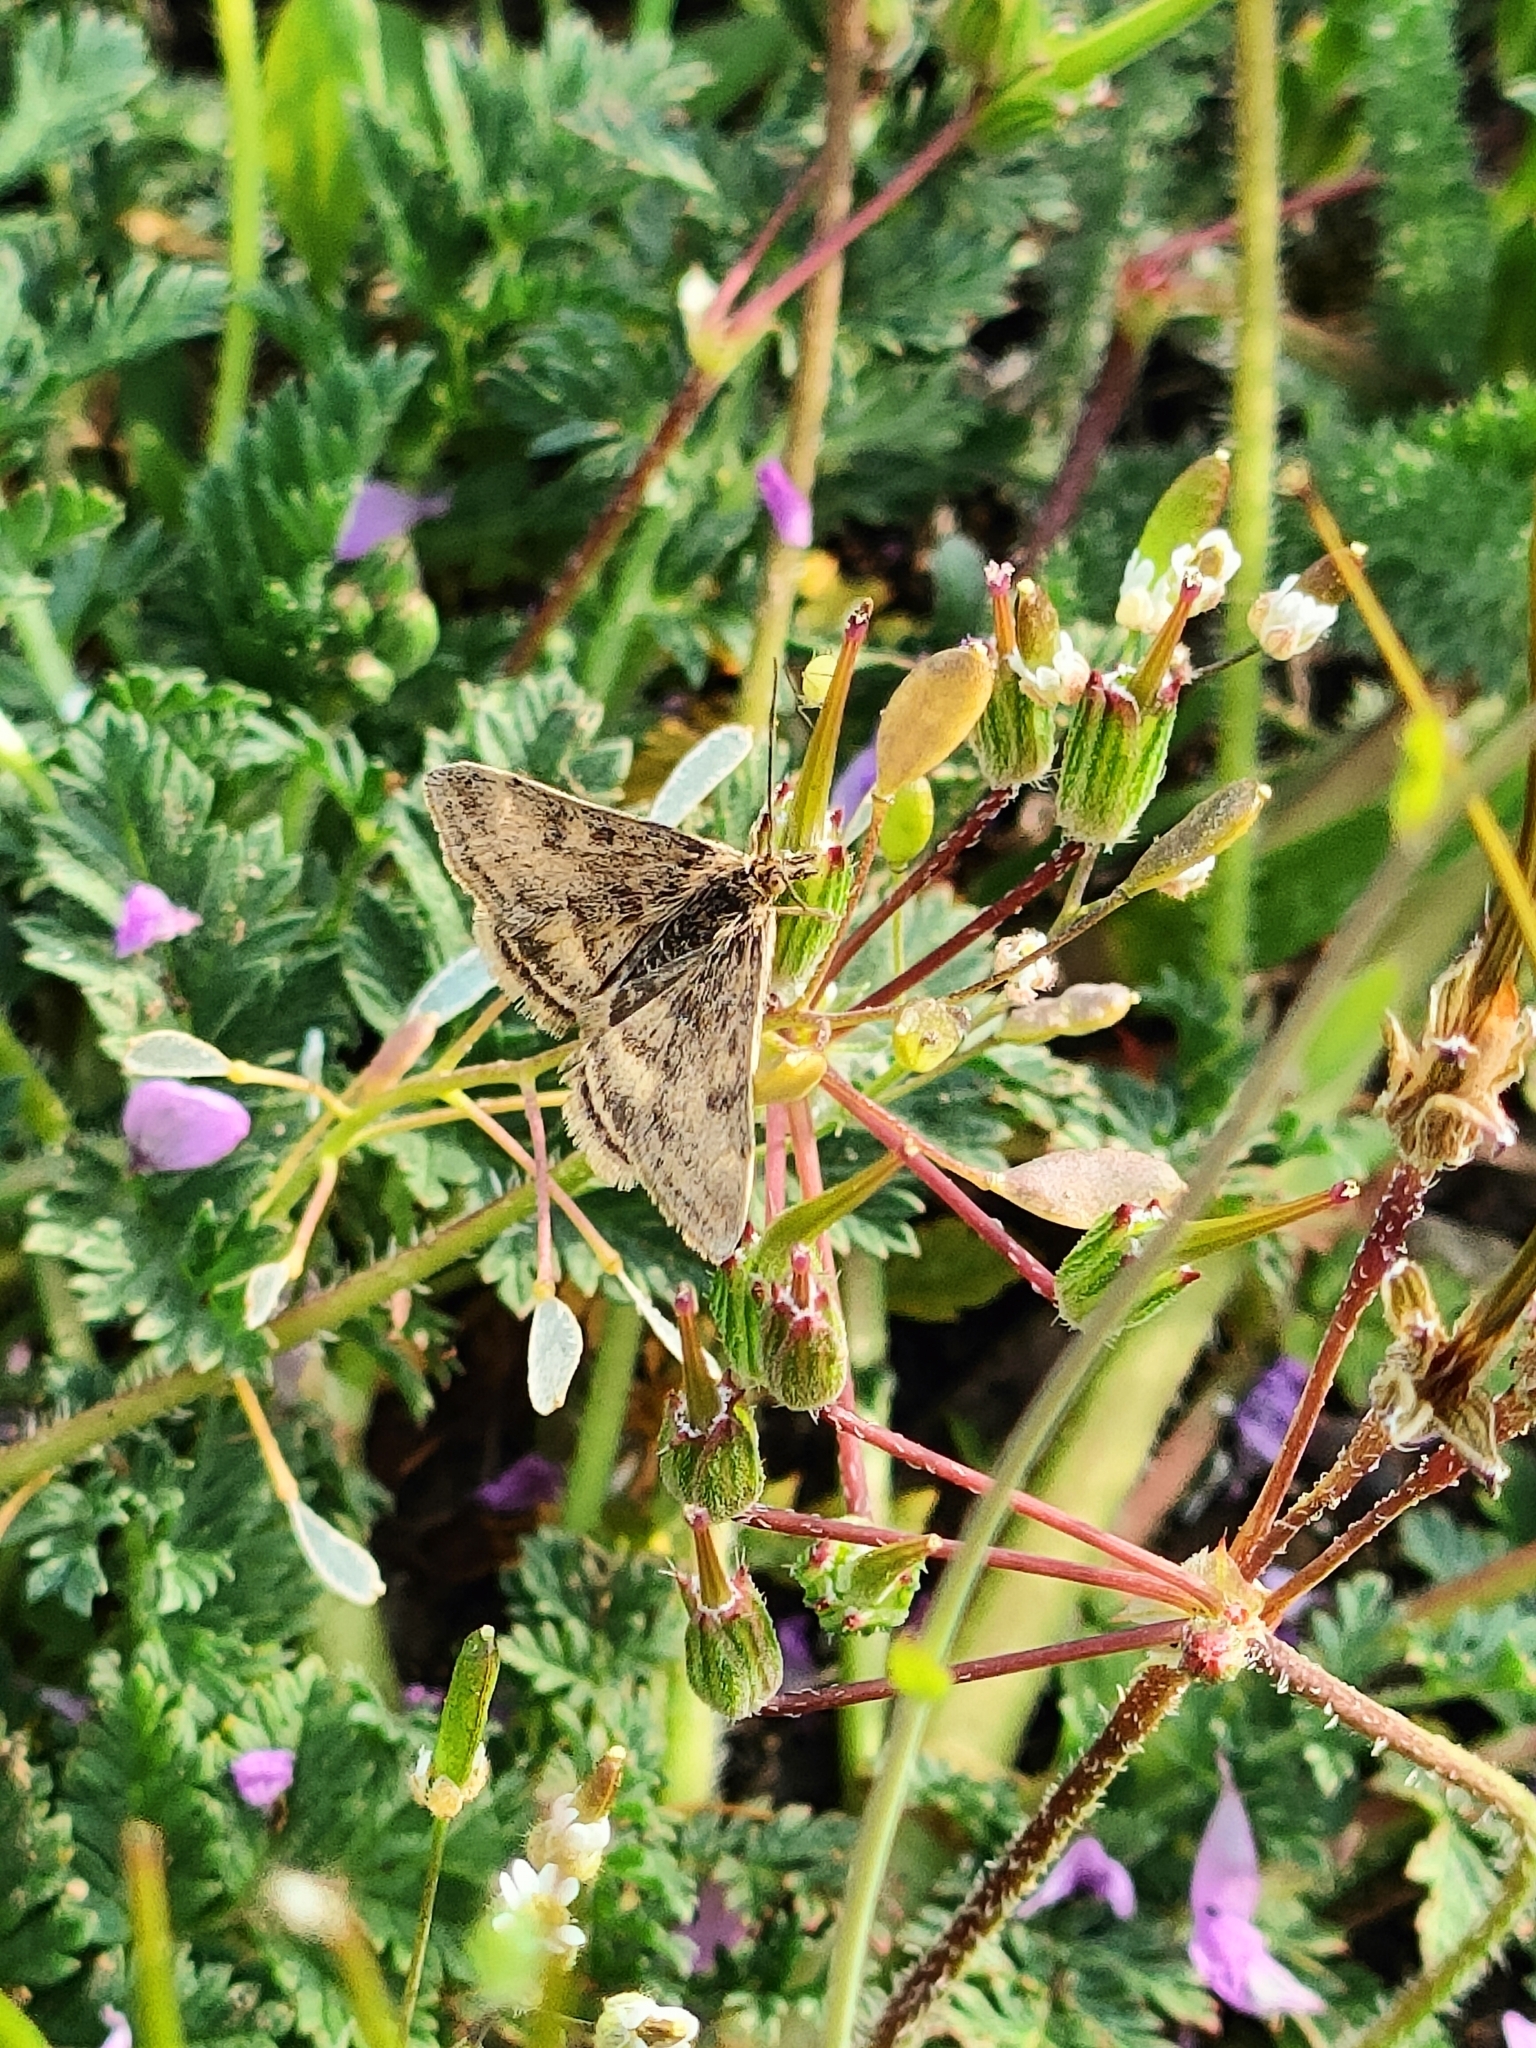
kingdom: Animalia
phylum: Arthropoda
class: Insecta
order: Lepidoptera
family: Crambidae
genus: Pyrausta
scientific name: Pyrausta despicata
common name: Straw-barred pearl
